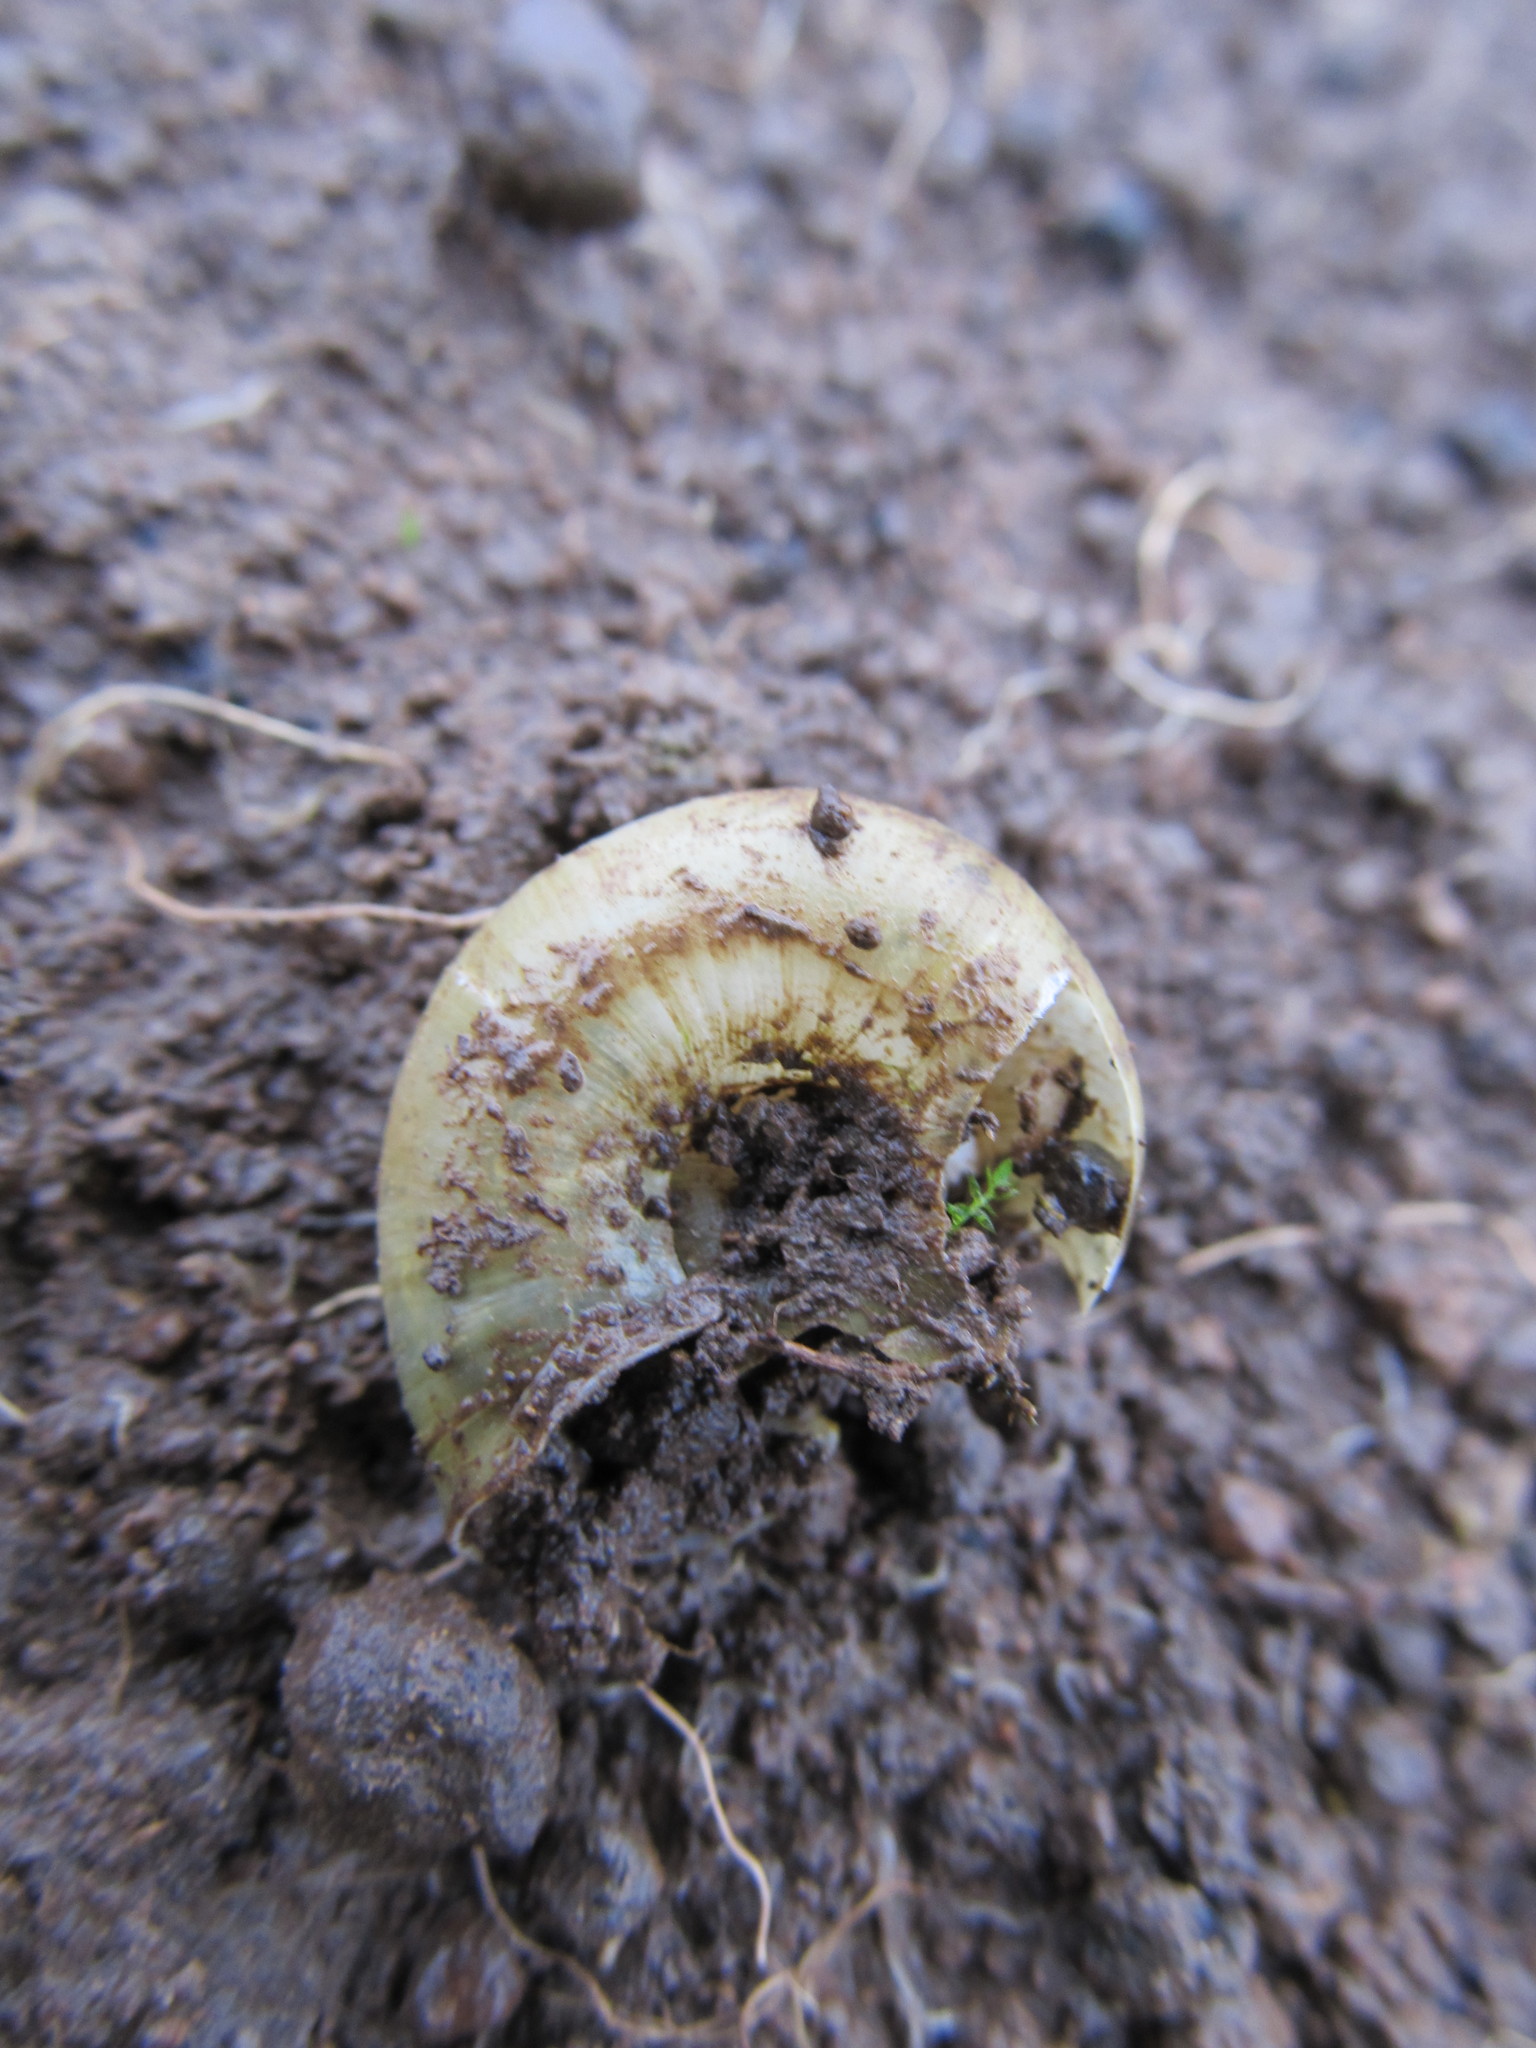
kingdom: Animalia
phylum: Mollusca
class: Gastropoda
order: Stylommatophora
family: Haplotrematidae
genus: Haplotrema
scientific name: Haplotrema vancouverense
